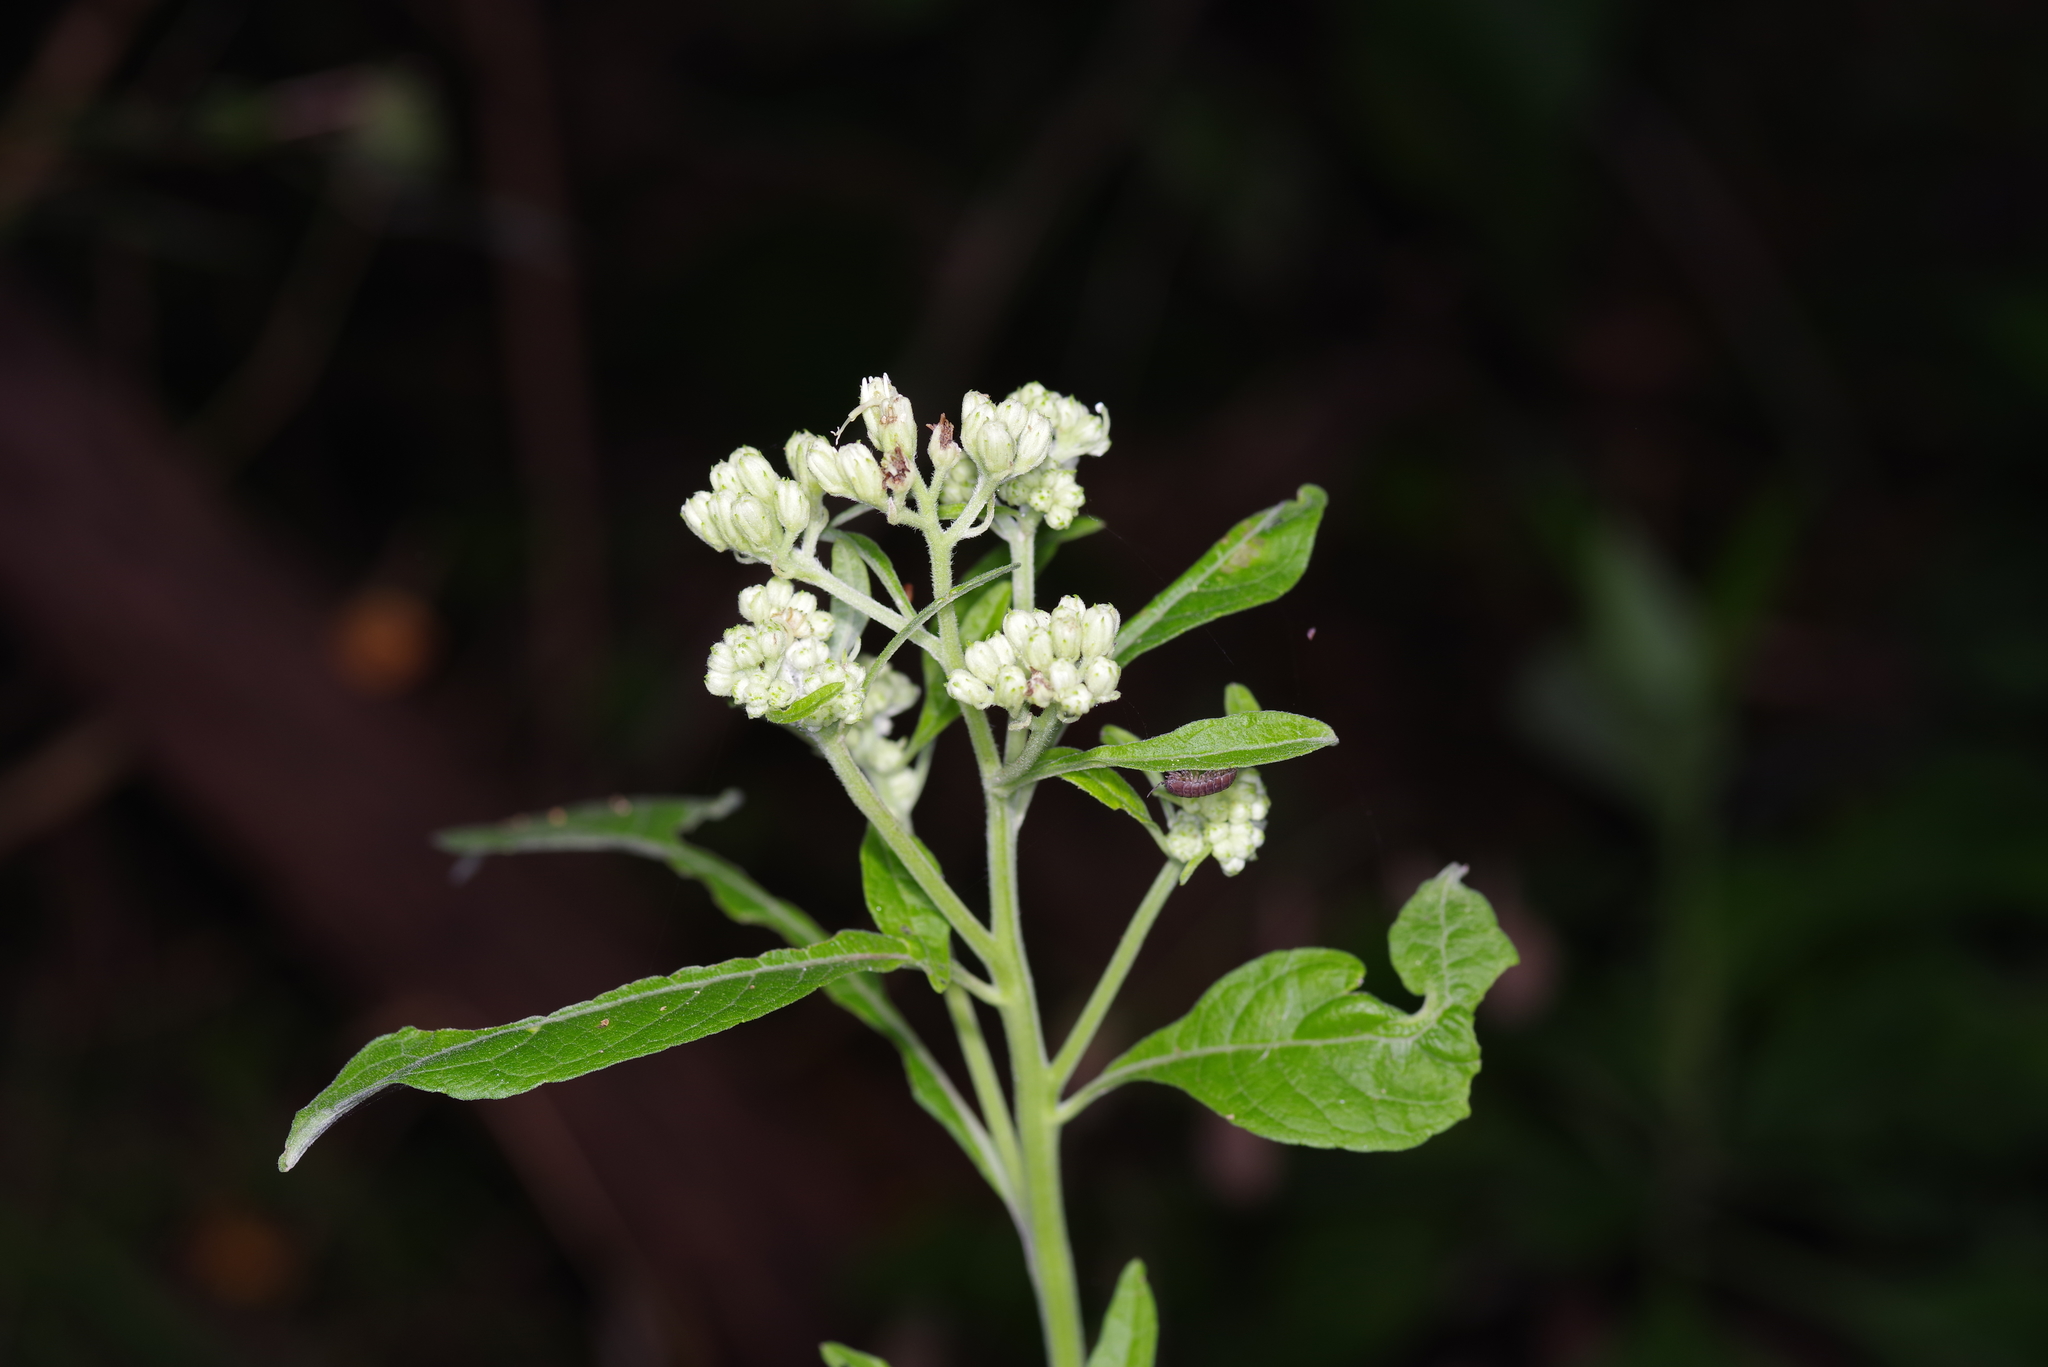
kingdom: Plantae
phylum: Tracheophyta
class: Magnoliopsida
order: Asterales
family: Asteraceae
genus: Verbesina
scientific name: Verbesina virginica
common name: Frostweed
